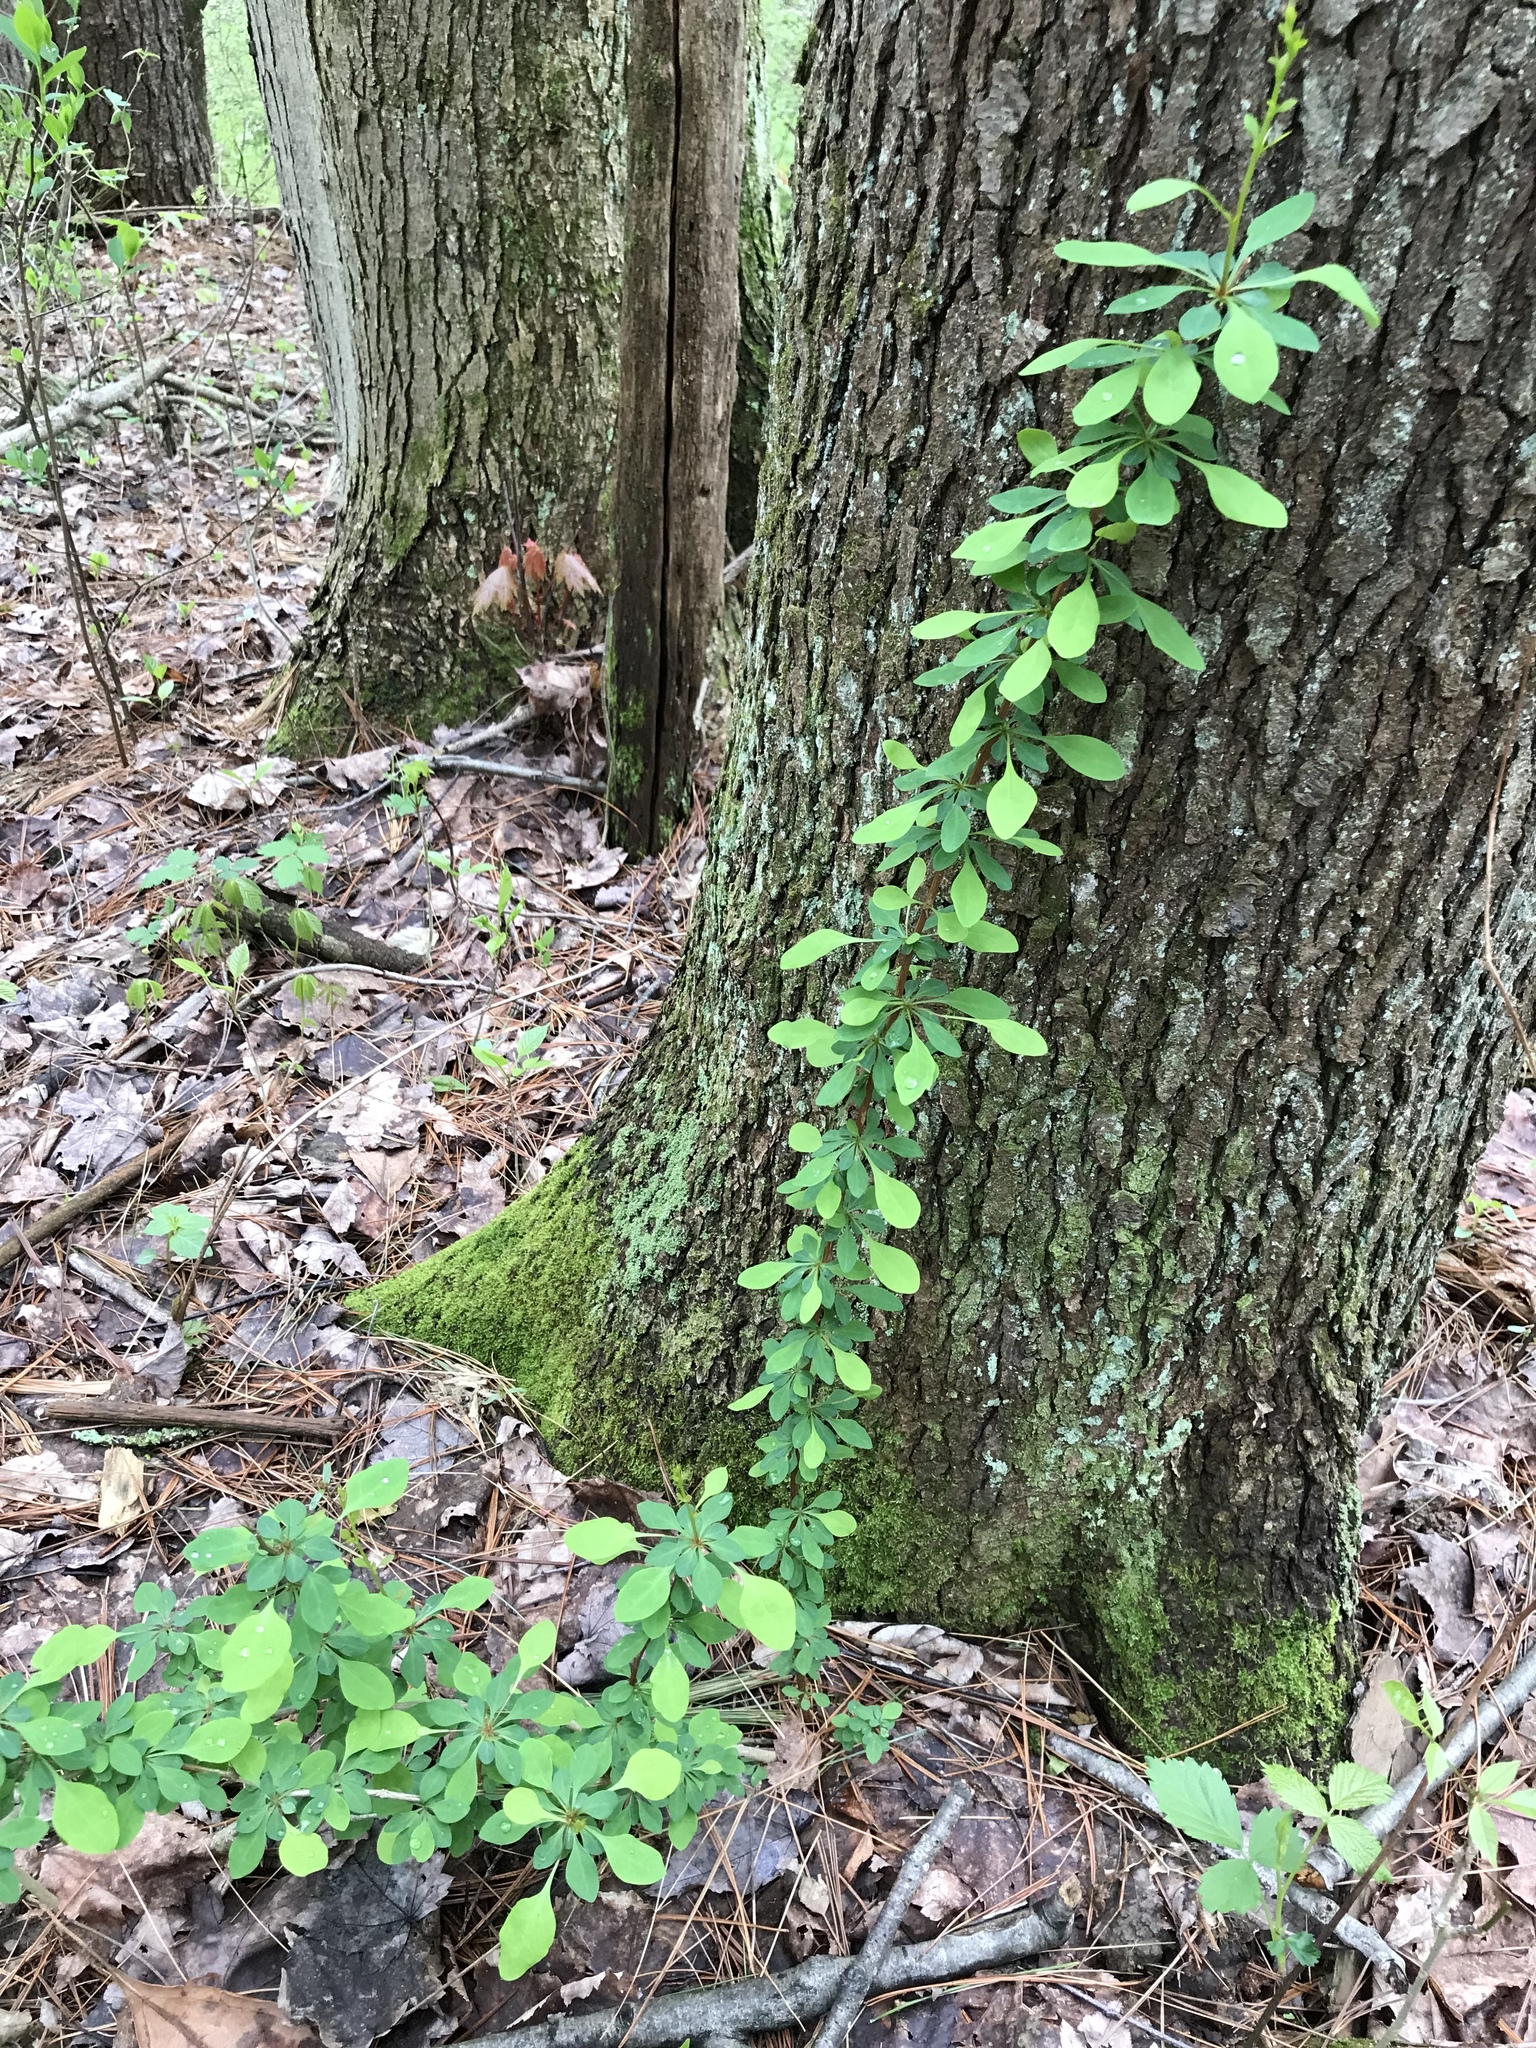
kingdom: Plantae
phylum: Tracheophyta
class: Magnoliopsida
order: Ranunculales
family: Berberidaceae
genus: Berberis
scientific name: Berberis thunbergii
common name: Japanese barberry
